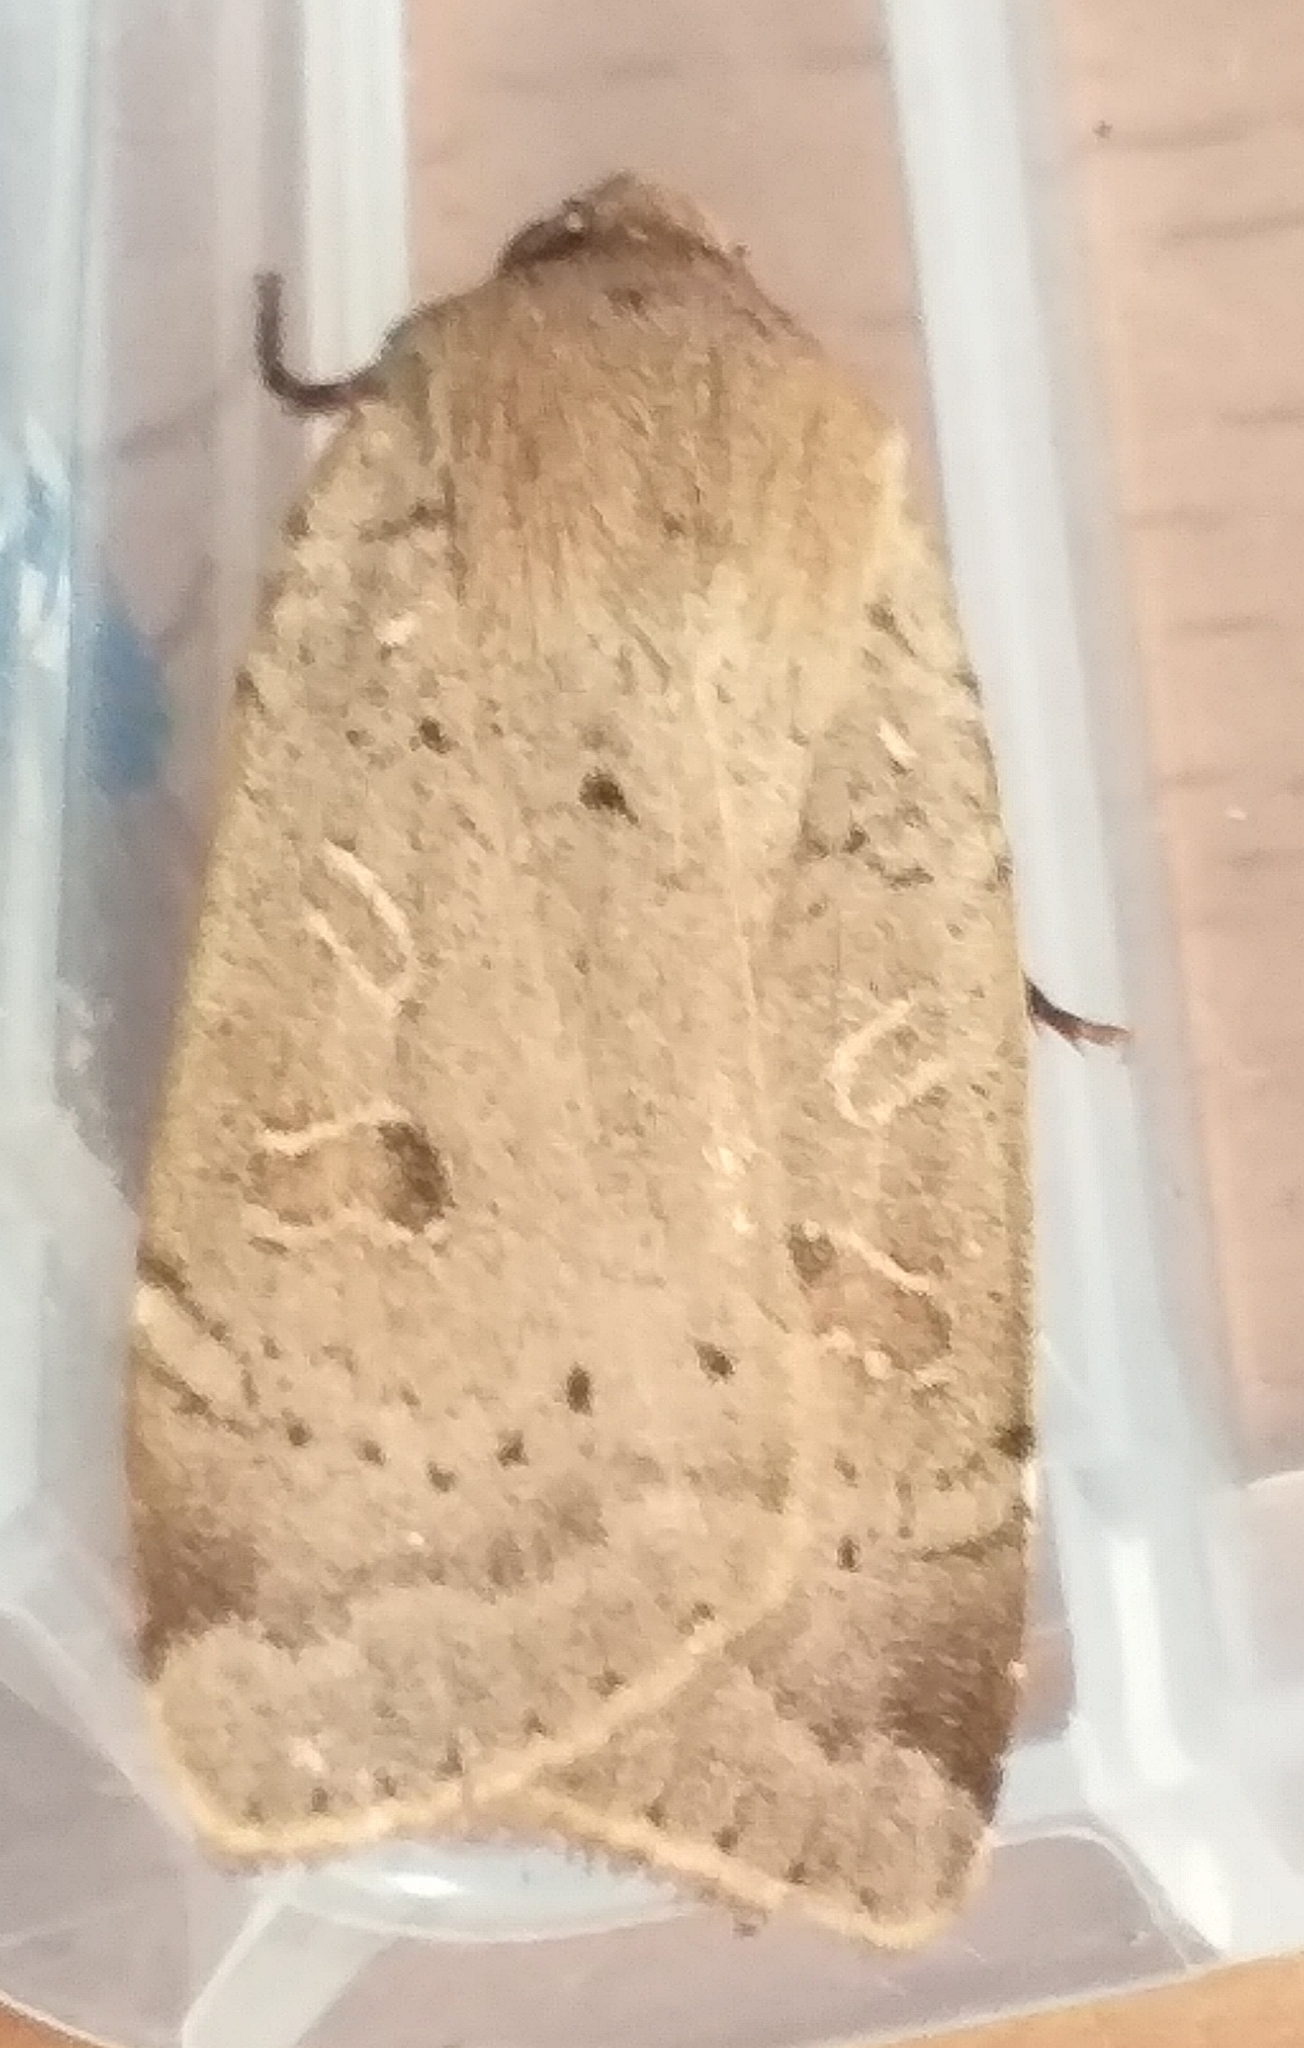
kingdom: Animalia
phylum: Arthropoda
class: Insecta
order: Lepidoptera
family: Noctuidae
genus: Noctua
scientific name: Noctua comes
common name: Lesser yellow underwing
